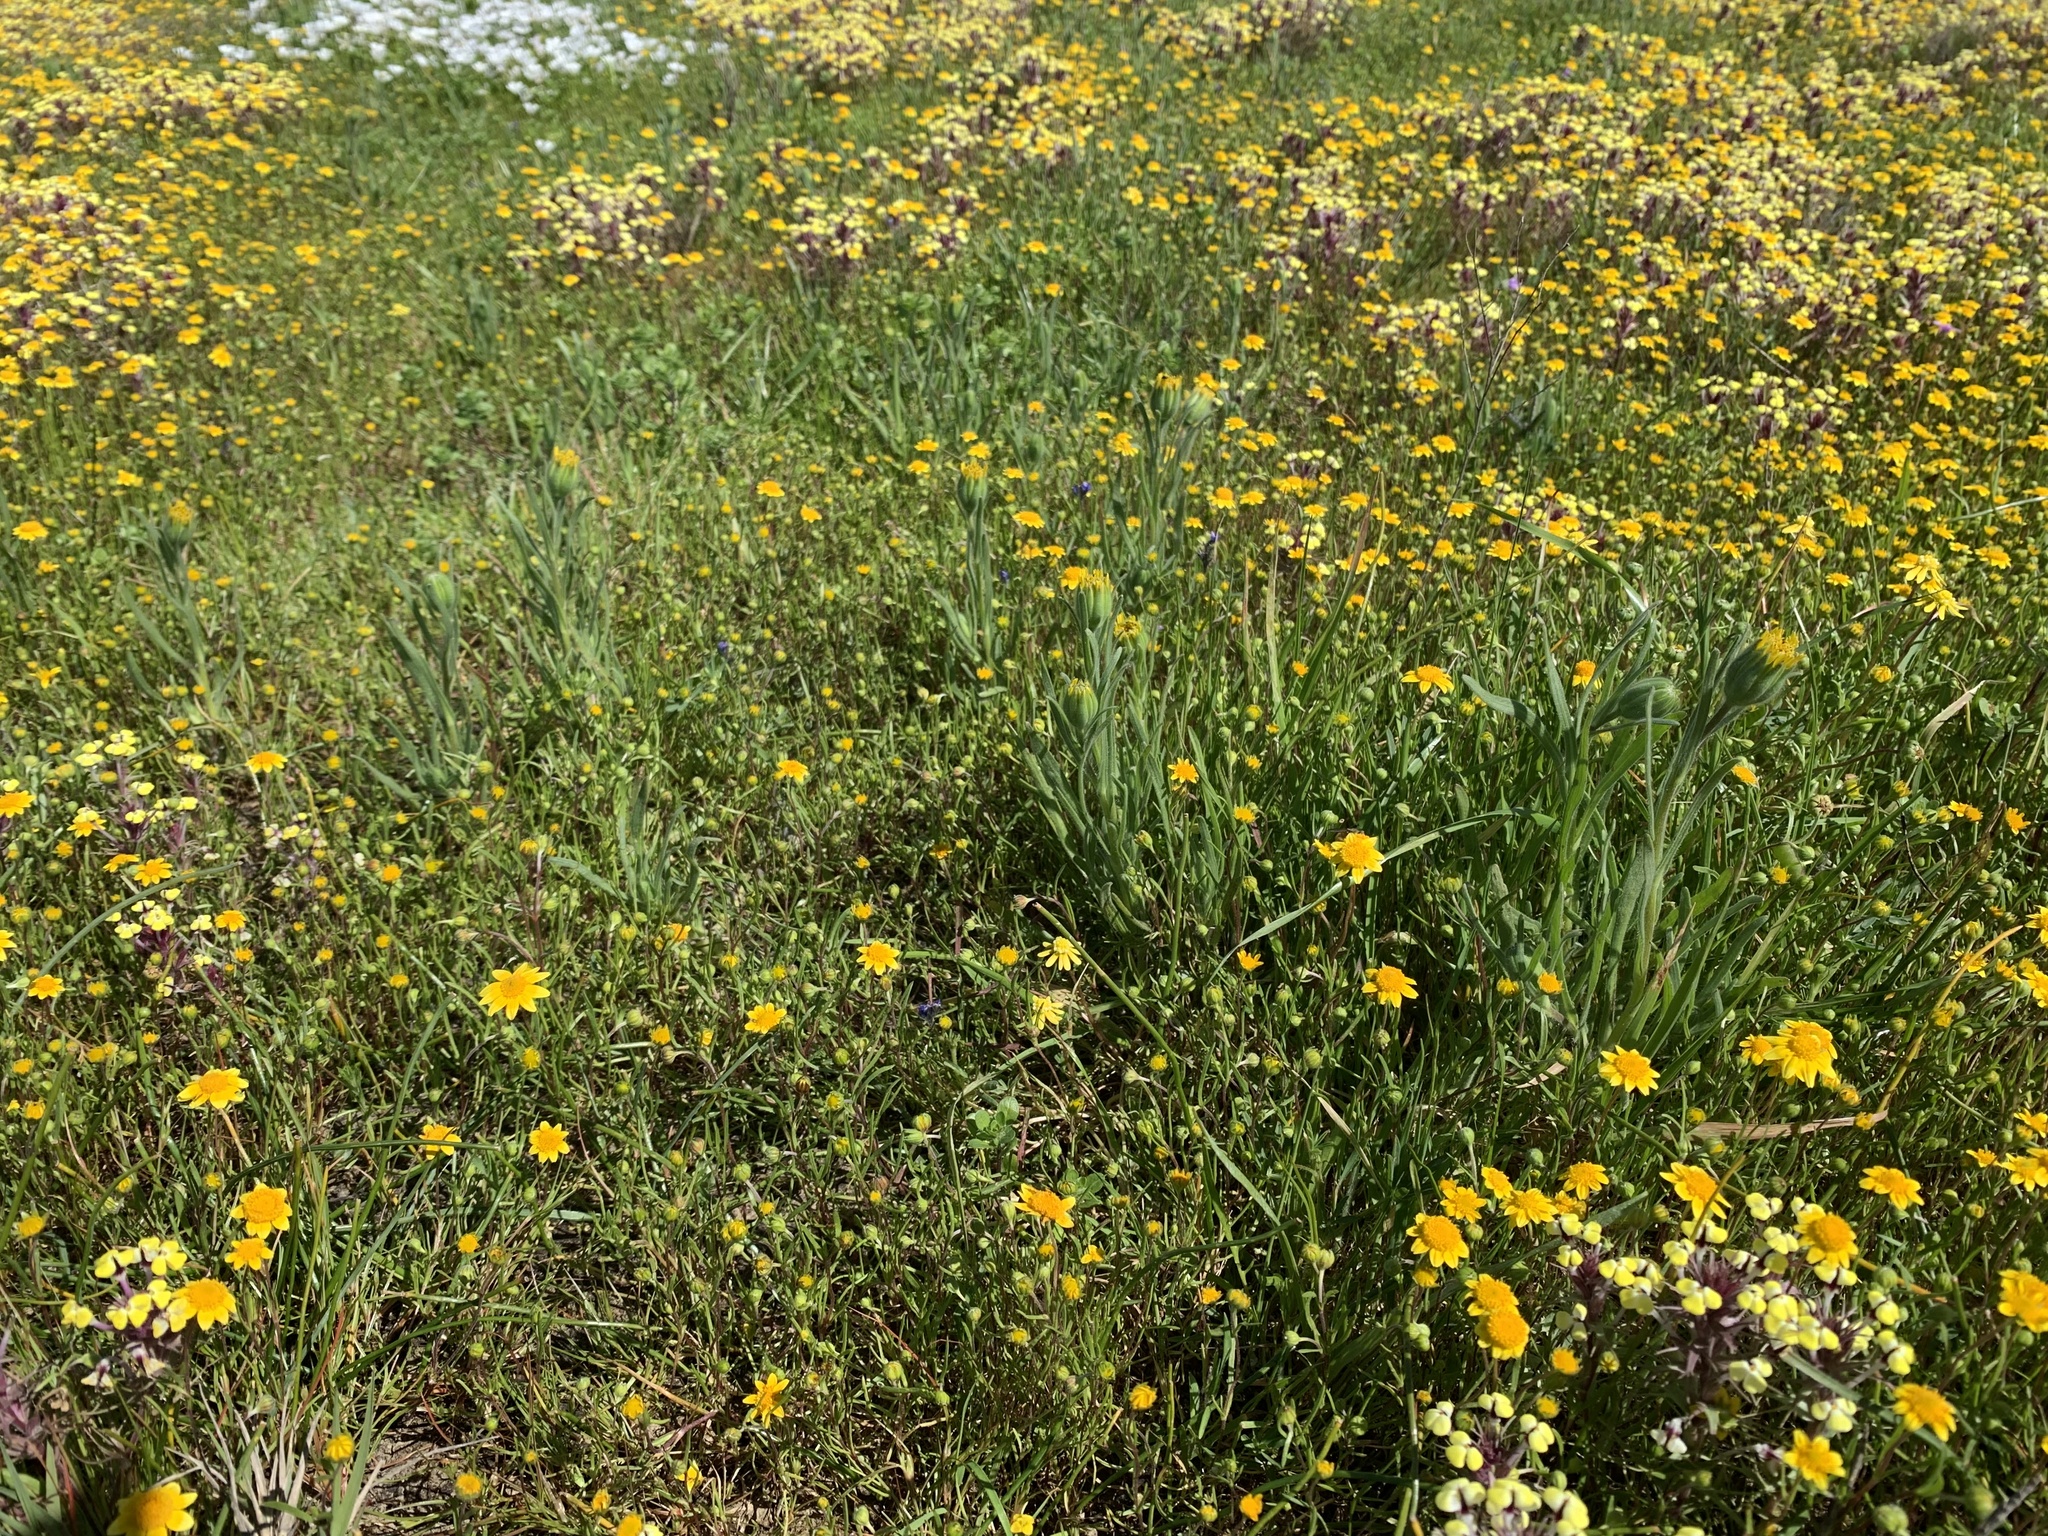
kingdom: Plantae
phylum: Tracheophyta
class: Magnoliopsida
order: Asterales
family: Asteraceae
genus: Achyrachaena
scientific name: Achyrachaena mollis
